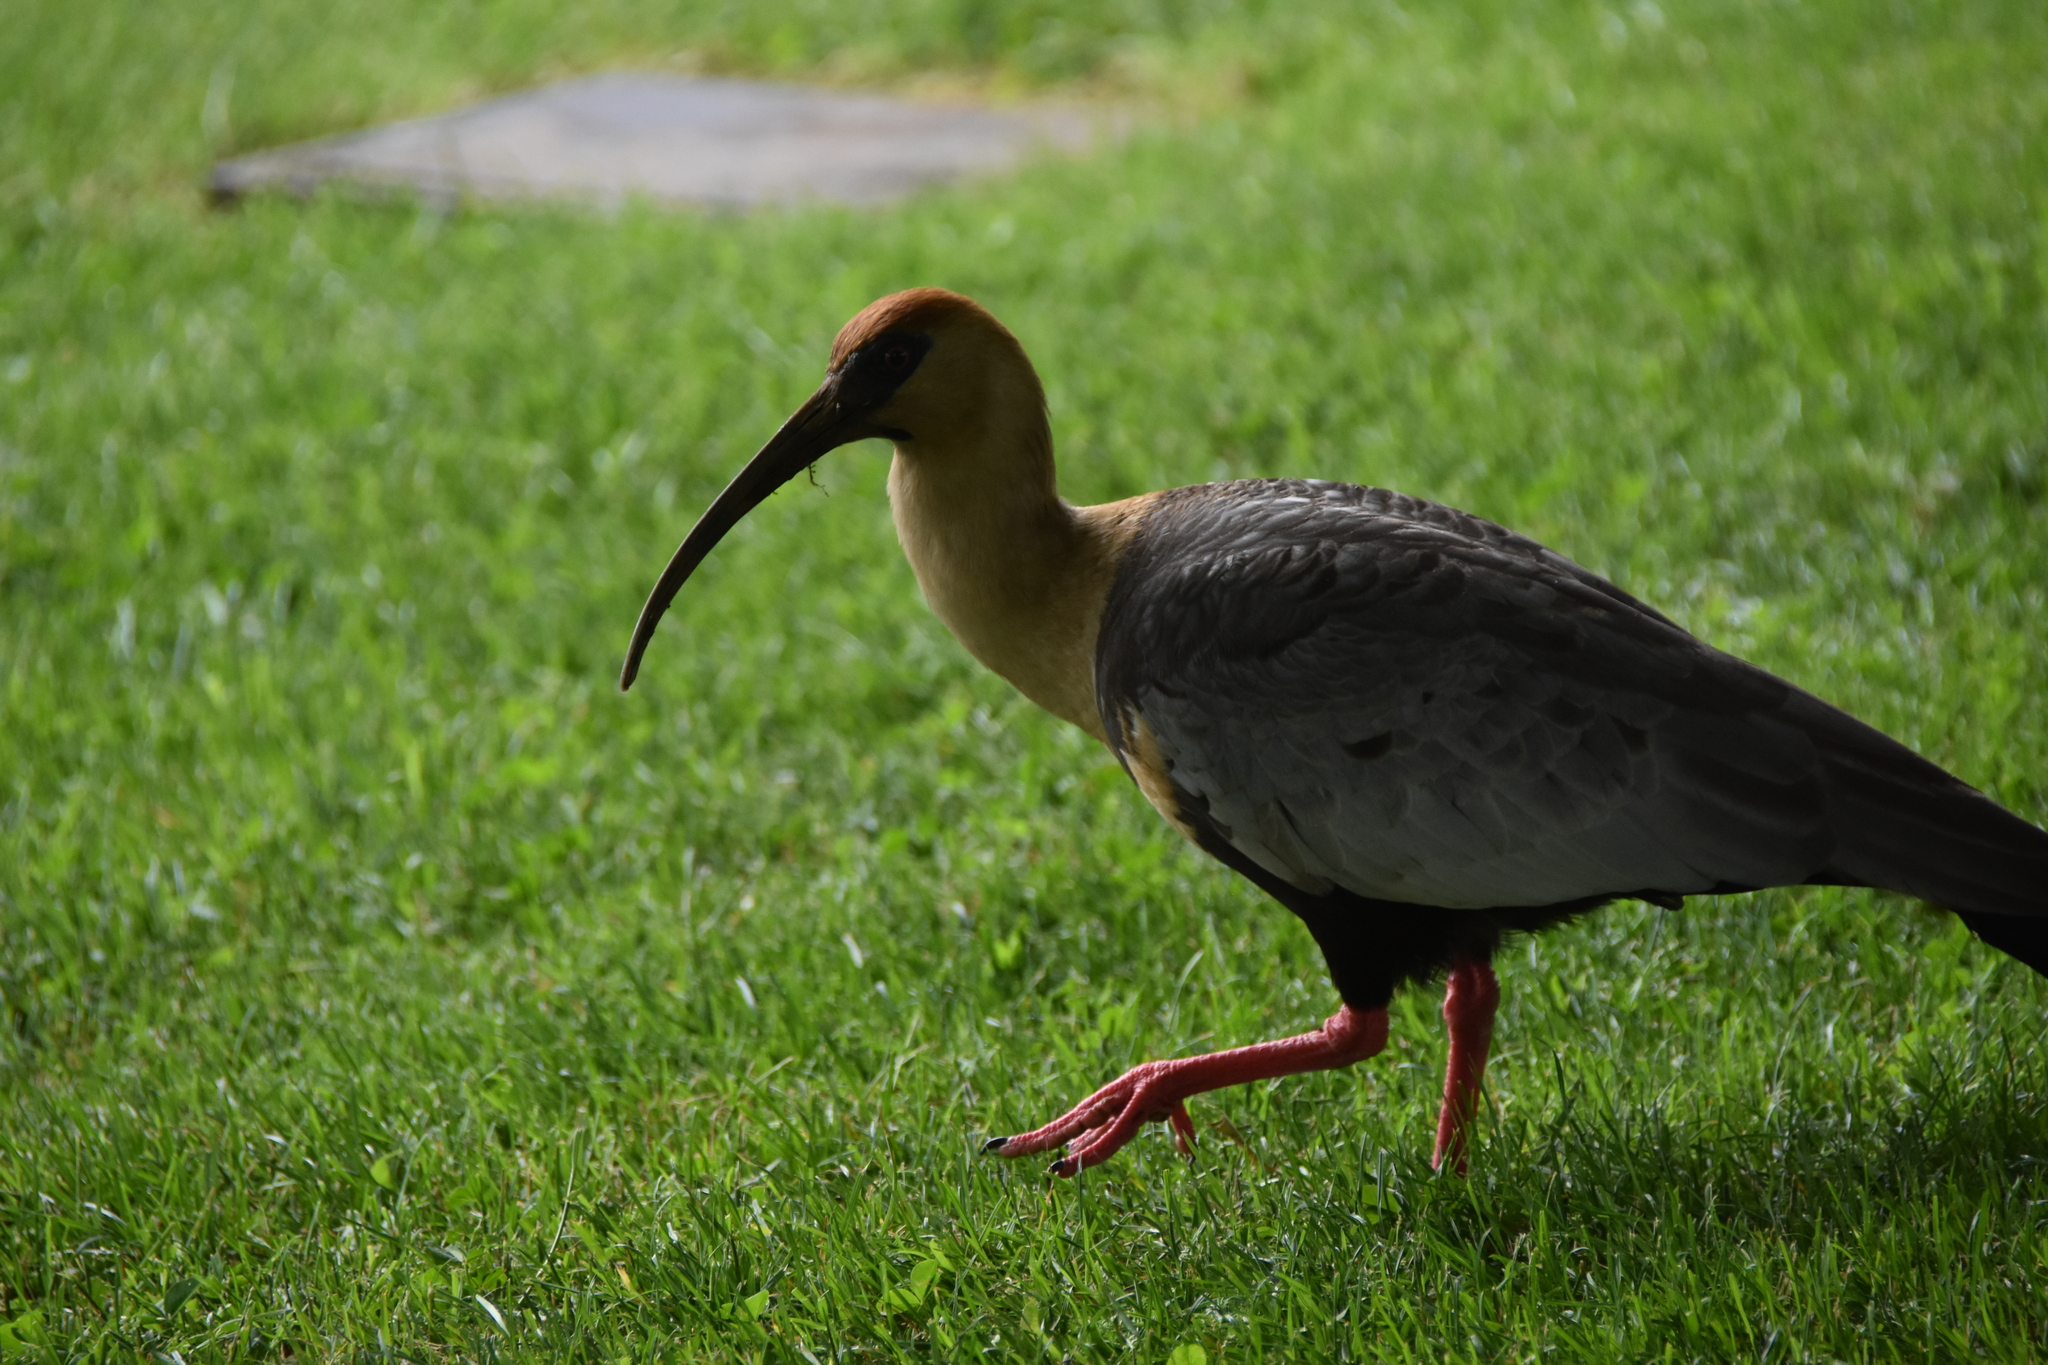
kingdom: Animalia
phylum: Chordata
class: Aves
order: Pelecaniformes
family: Threskiornithidae
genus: Theristicus
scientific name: Theristicus melanopis
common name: Black-faced ibis
